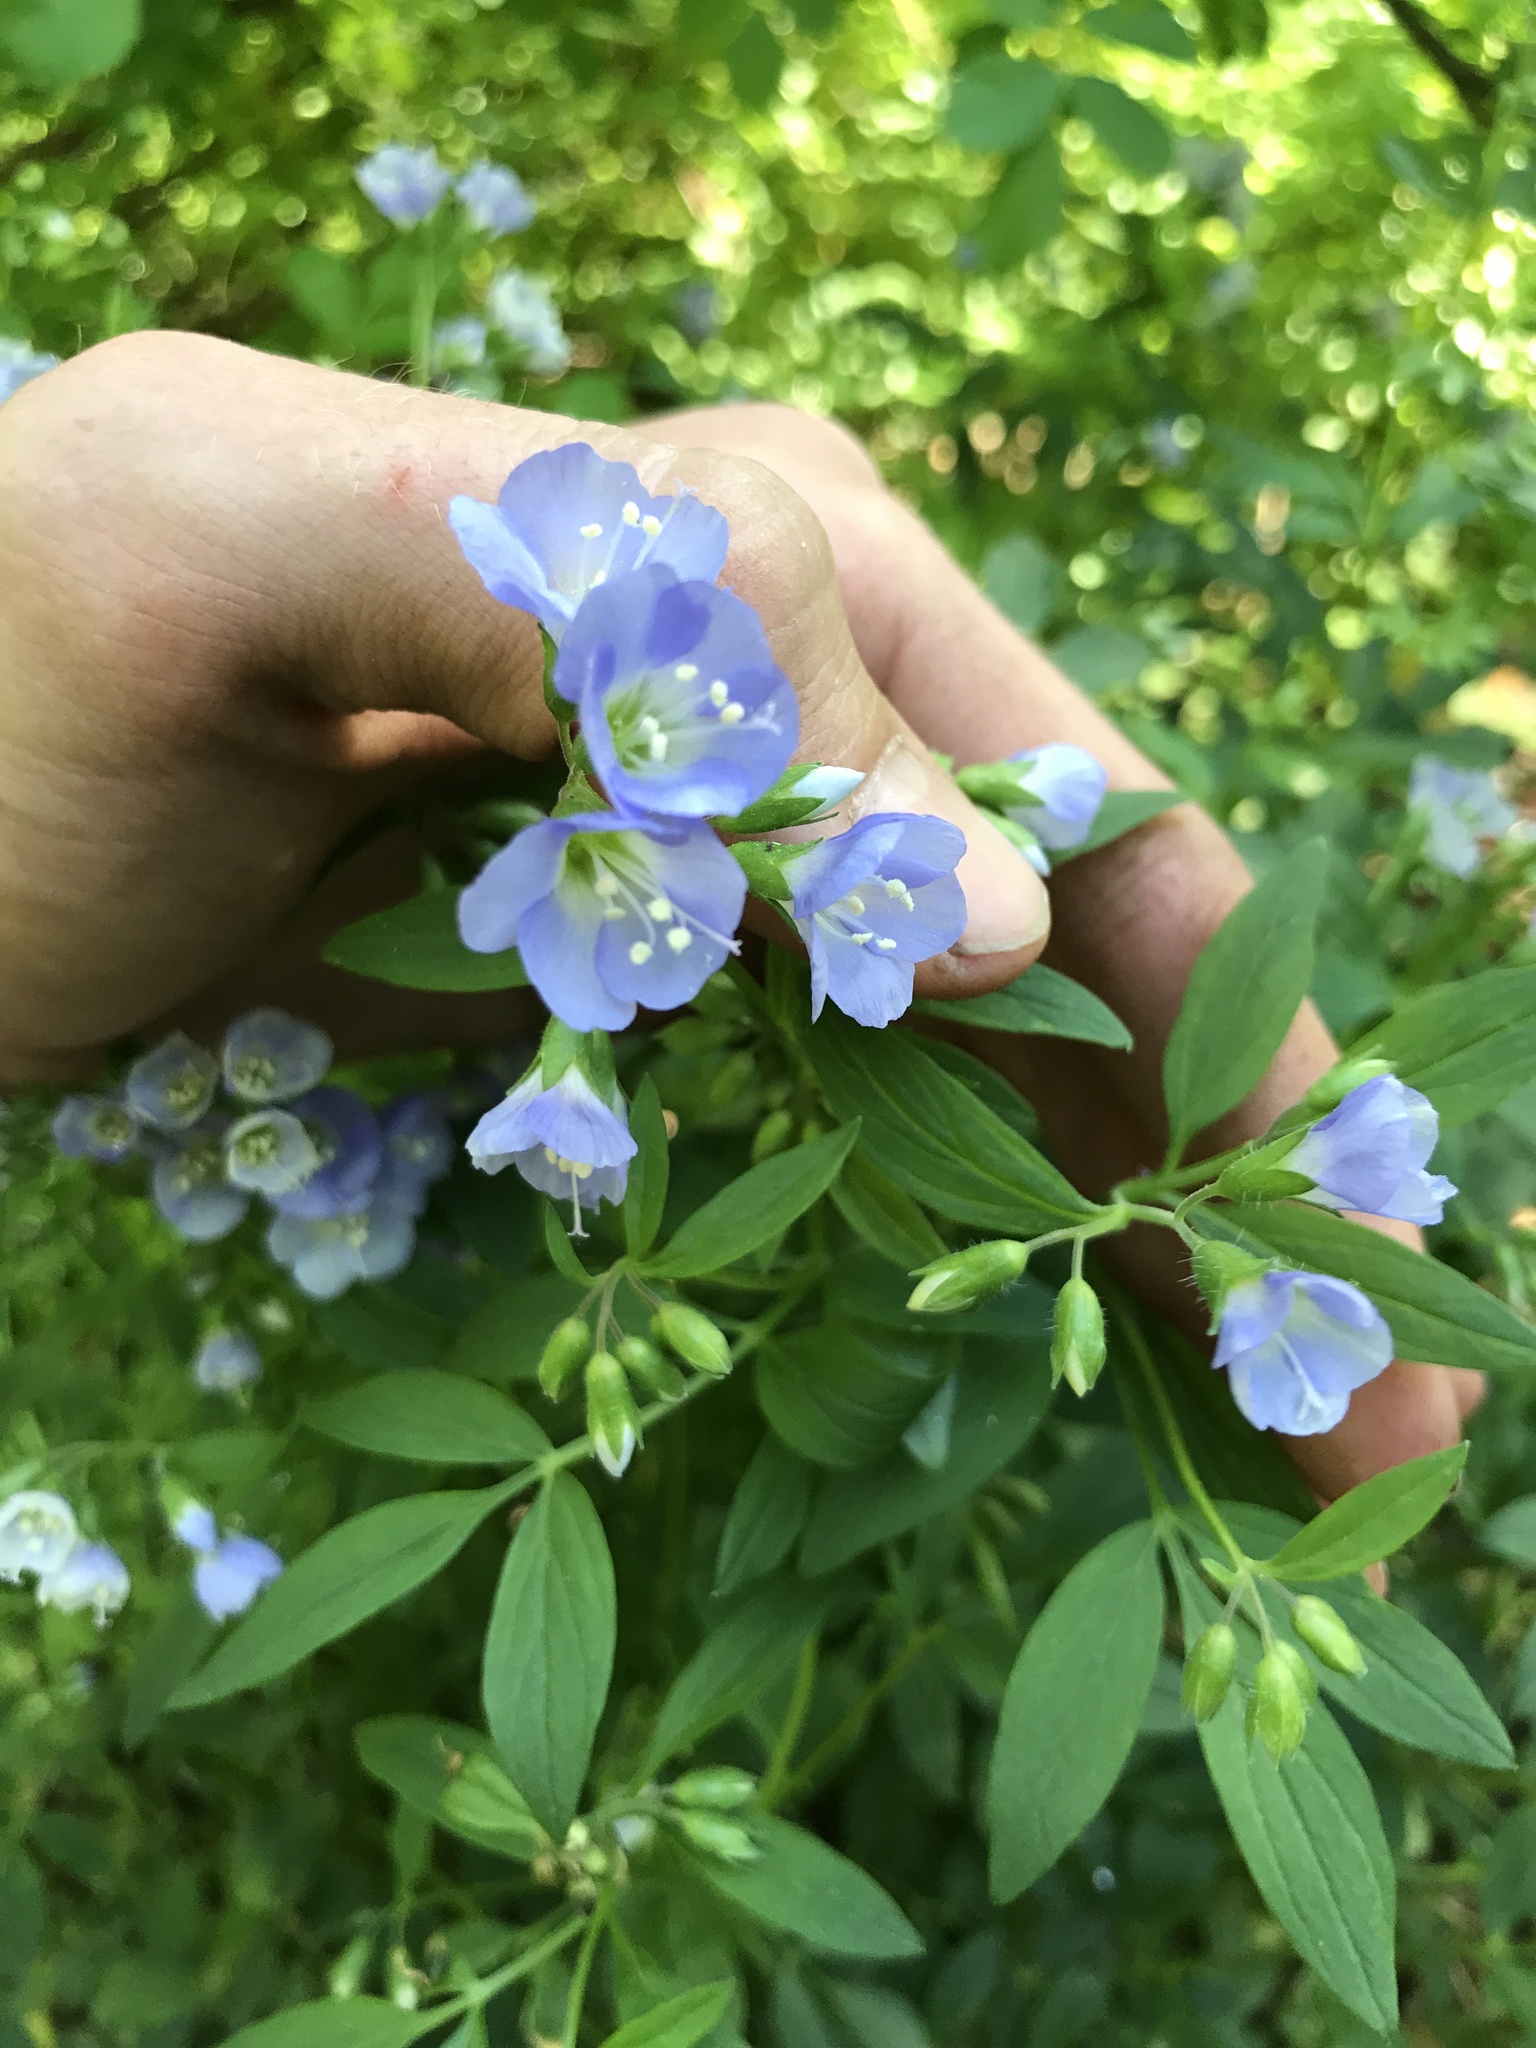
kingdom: Plantae
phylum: Tracheophyta
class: Magnoliopsida
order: Ericales
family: Polemoniaceae
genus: Polemonium
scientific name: Polemonium reptans
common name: Creeping jacob's-ladder
